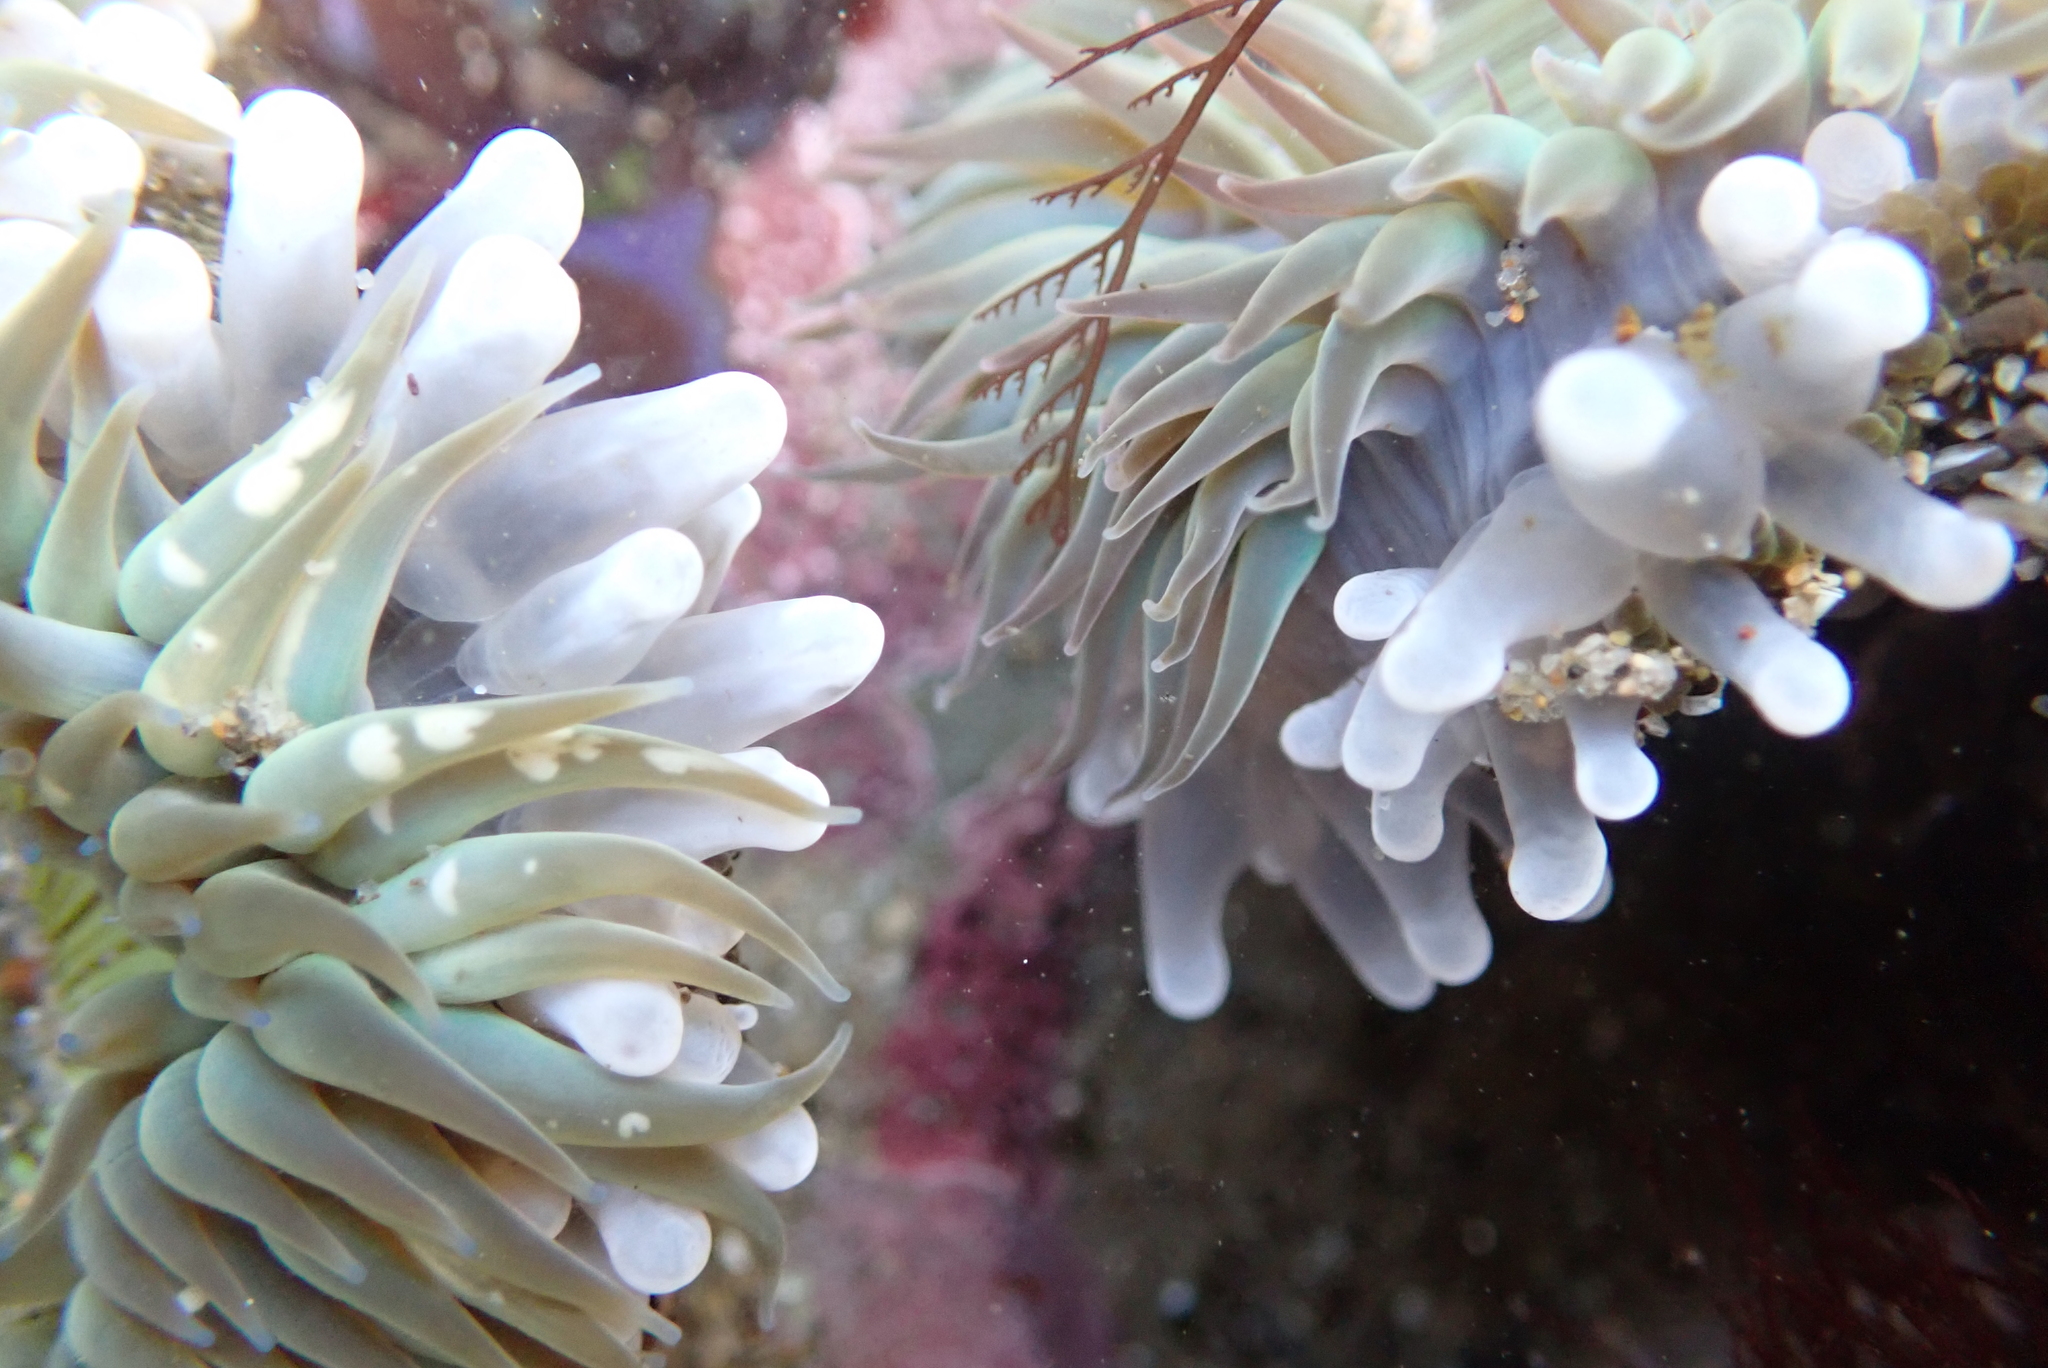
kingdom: Animalia
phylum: Cnidaria
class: Anthozoa
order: Actiniaria
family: Actiniidae
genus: Anthopleura
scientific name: Anthopleura sola
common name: Sun anemone
